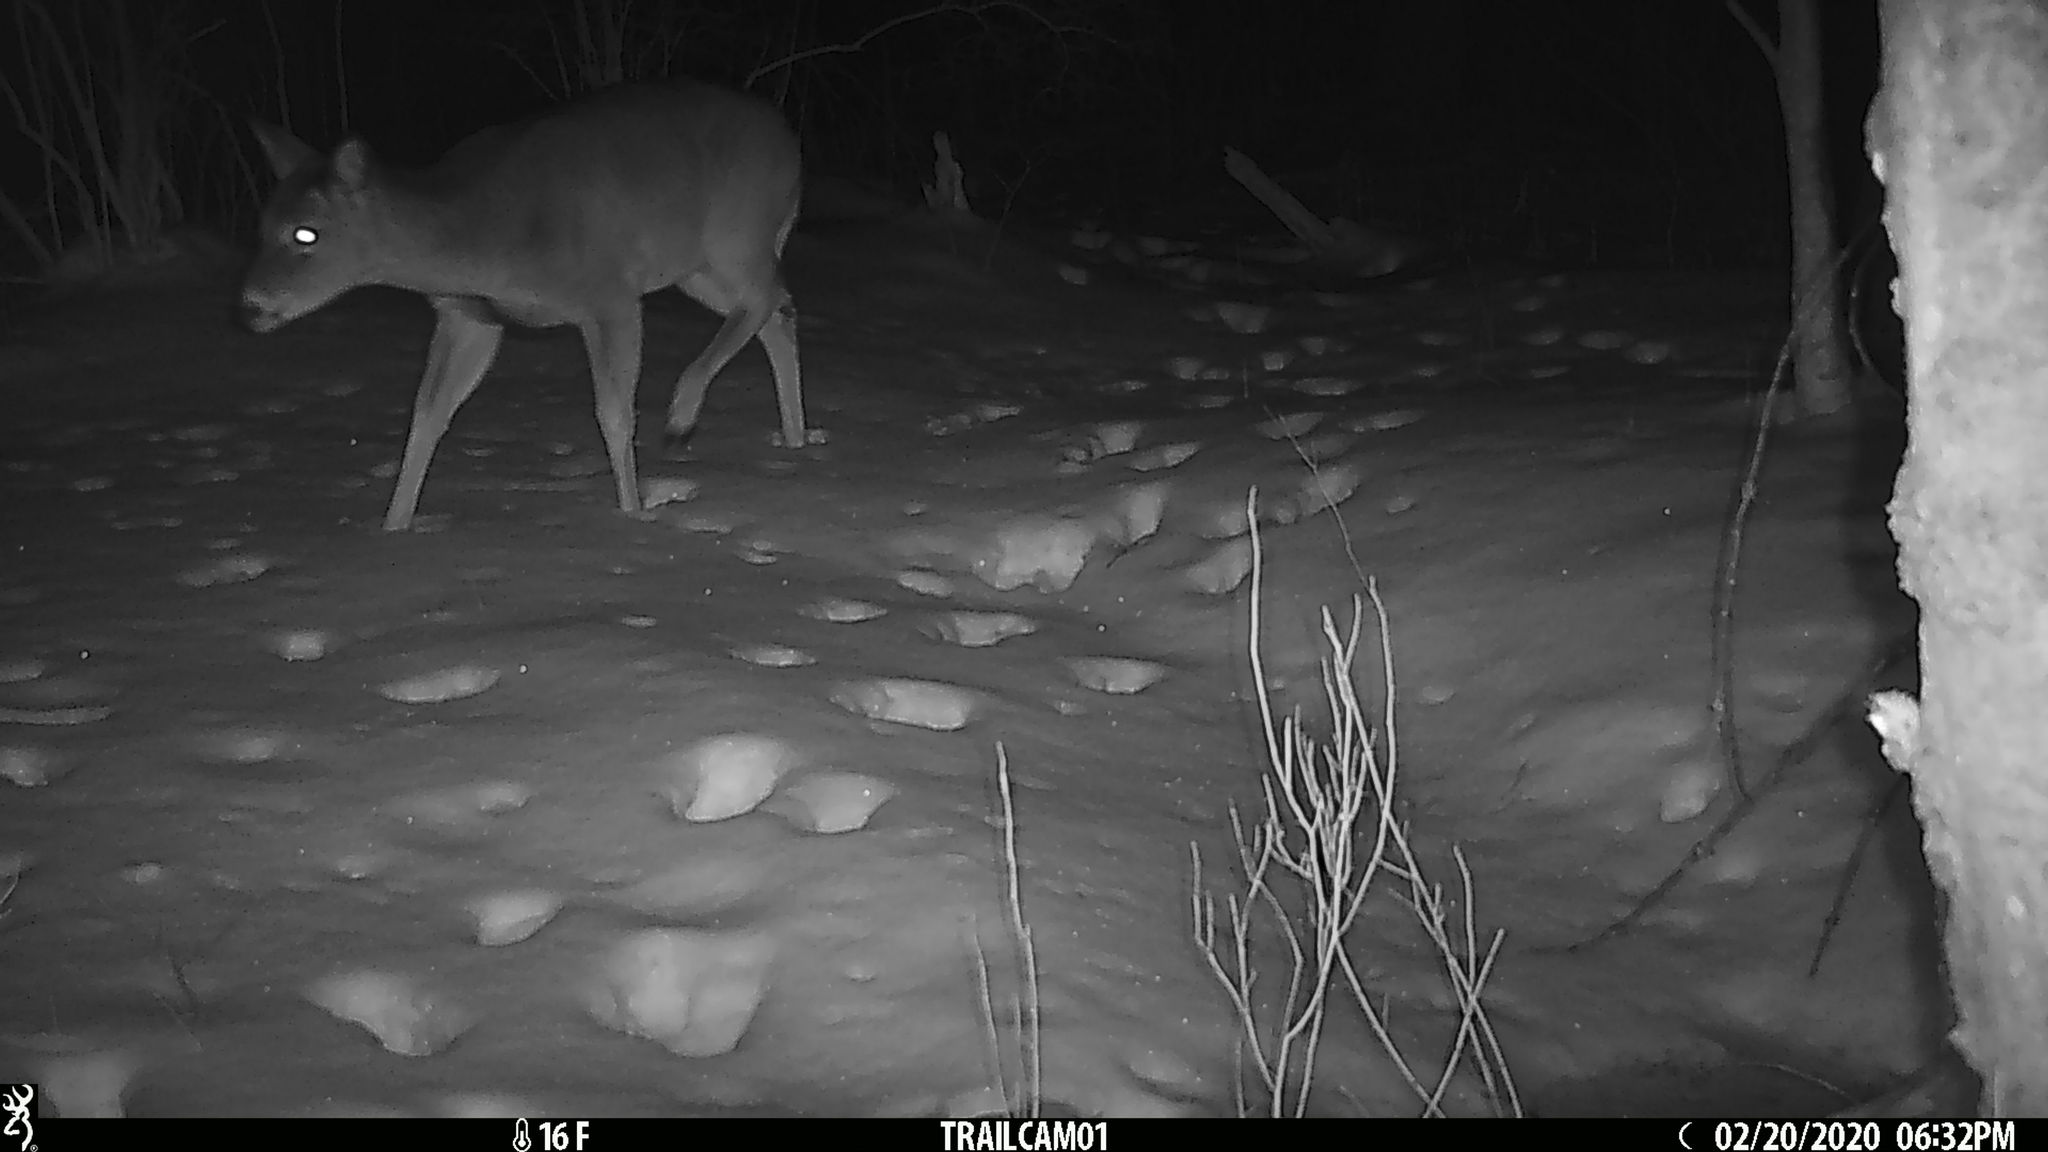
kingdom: Animalia
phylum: Chordata
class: Mammalia
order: Artiodactyla
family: Cervidae
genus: Odocoileus
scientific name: Odocoileus virginianus
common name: White-tailed deer
